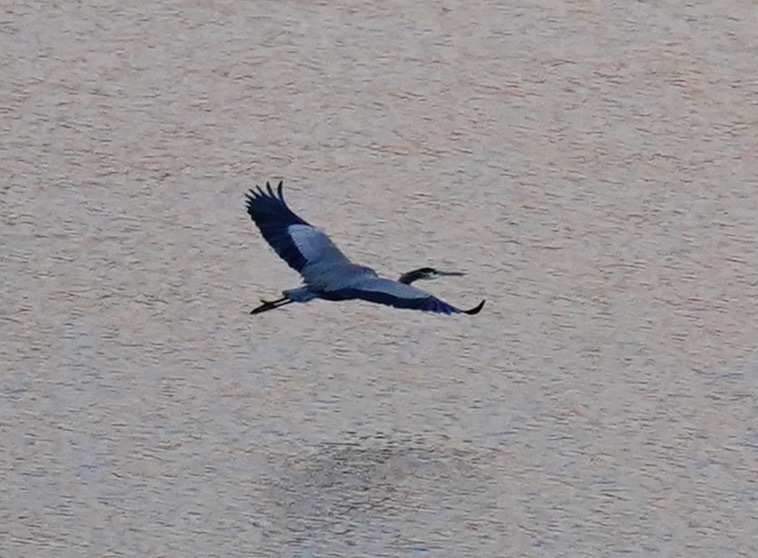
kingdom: Animalia
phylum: Chordata
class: Aves
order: Pelecaniformes
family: Ardeidae
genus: Ardea
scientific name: Ardea herodias
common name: Great blue heron
